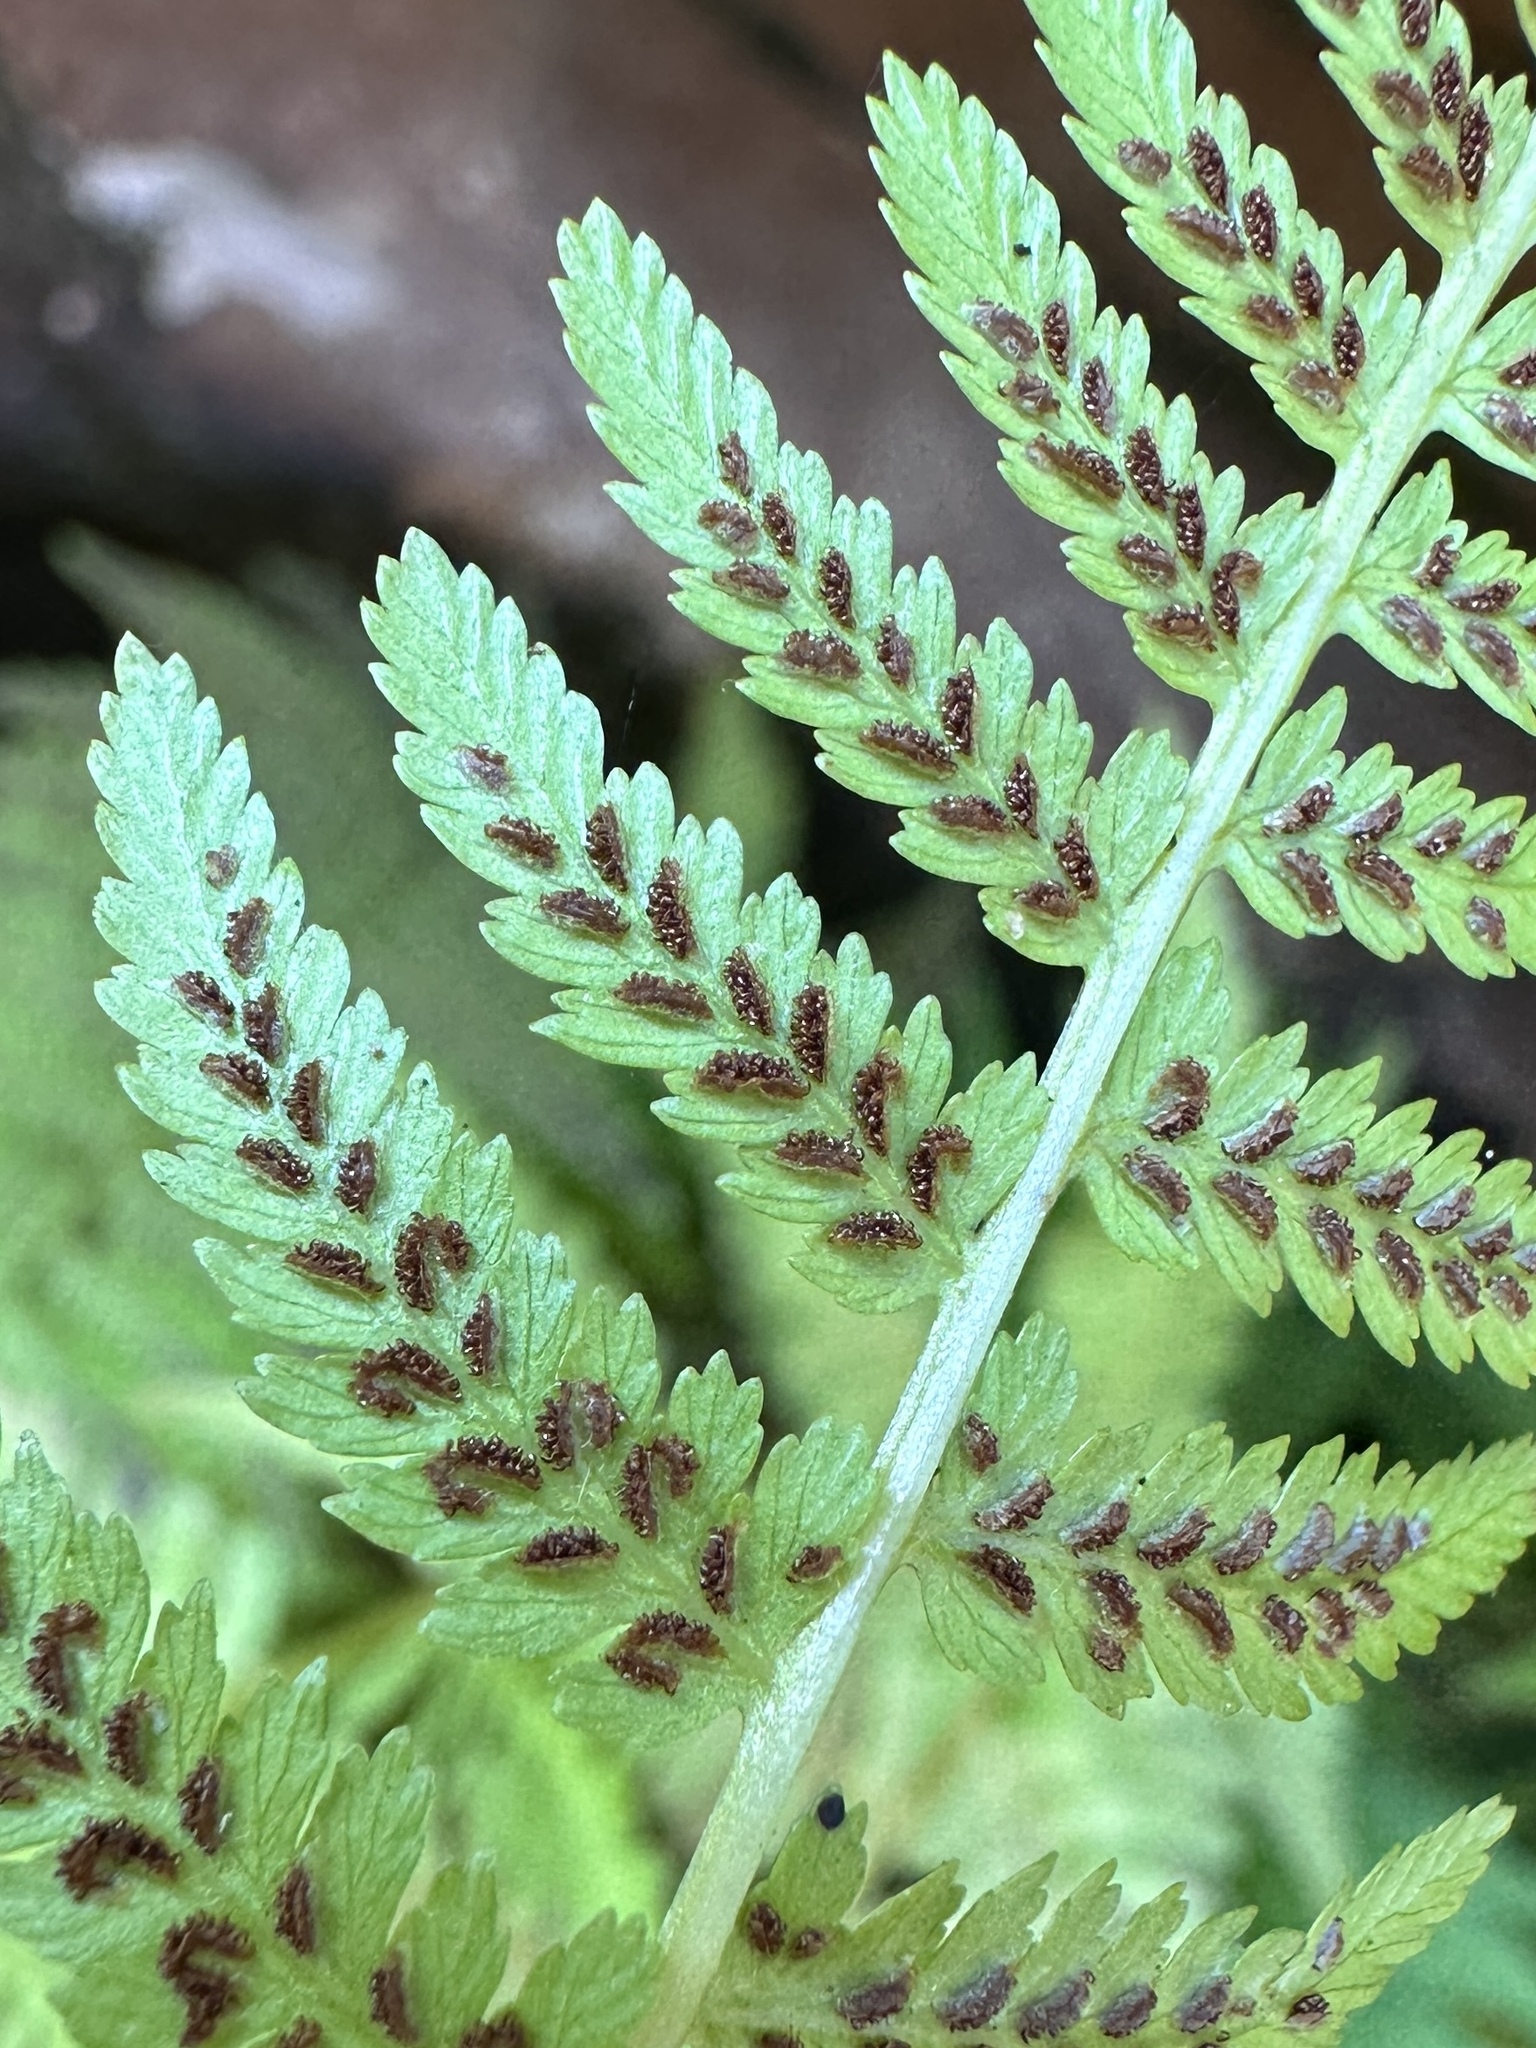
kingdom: Plantae
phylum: Tracheophyta
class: Polypodiopsida
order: Polypodiales
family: Athyriaceae
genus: Athyrium
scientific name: Athyrium asplenioides
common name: Southern lady fern
